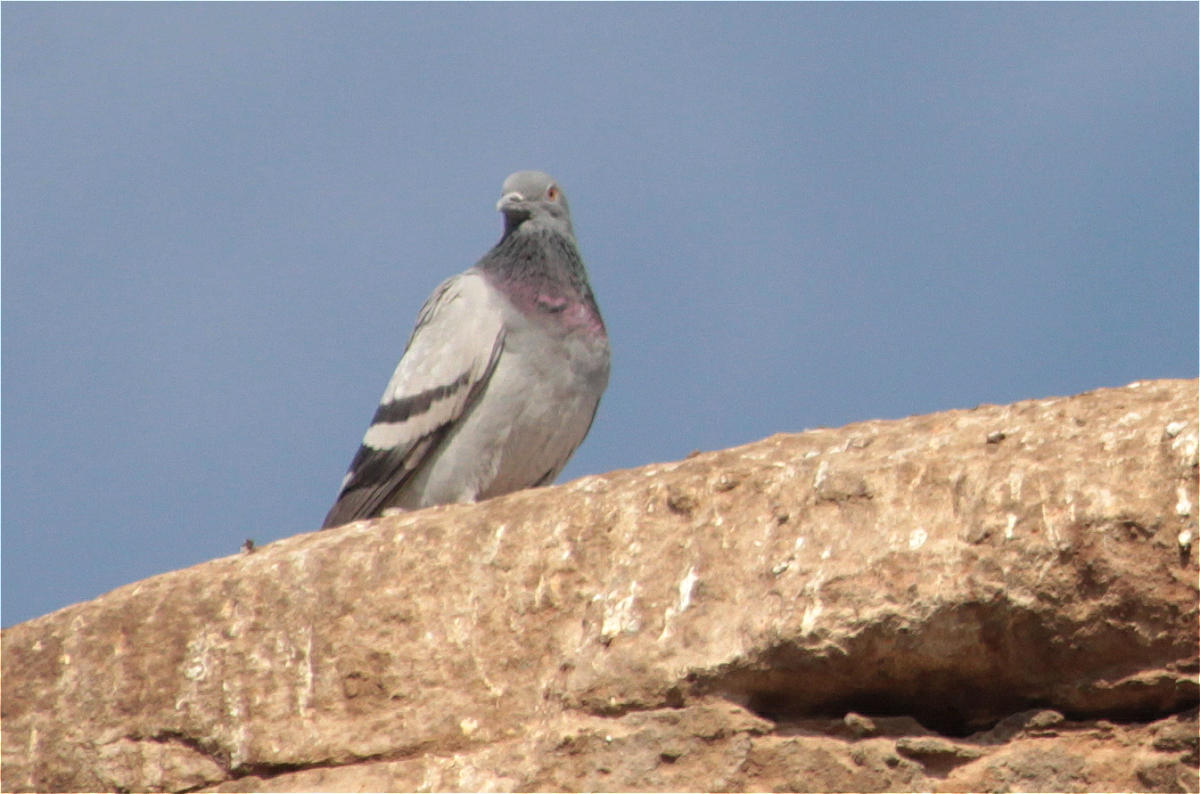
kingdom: Animalia
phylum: Chordata
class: Aves
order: Columbiformes
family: Columbidae
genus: Columba
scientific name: Columba livia
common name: Rock pigeon
